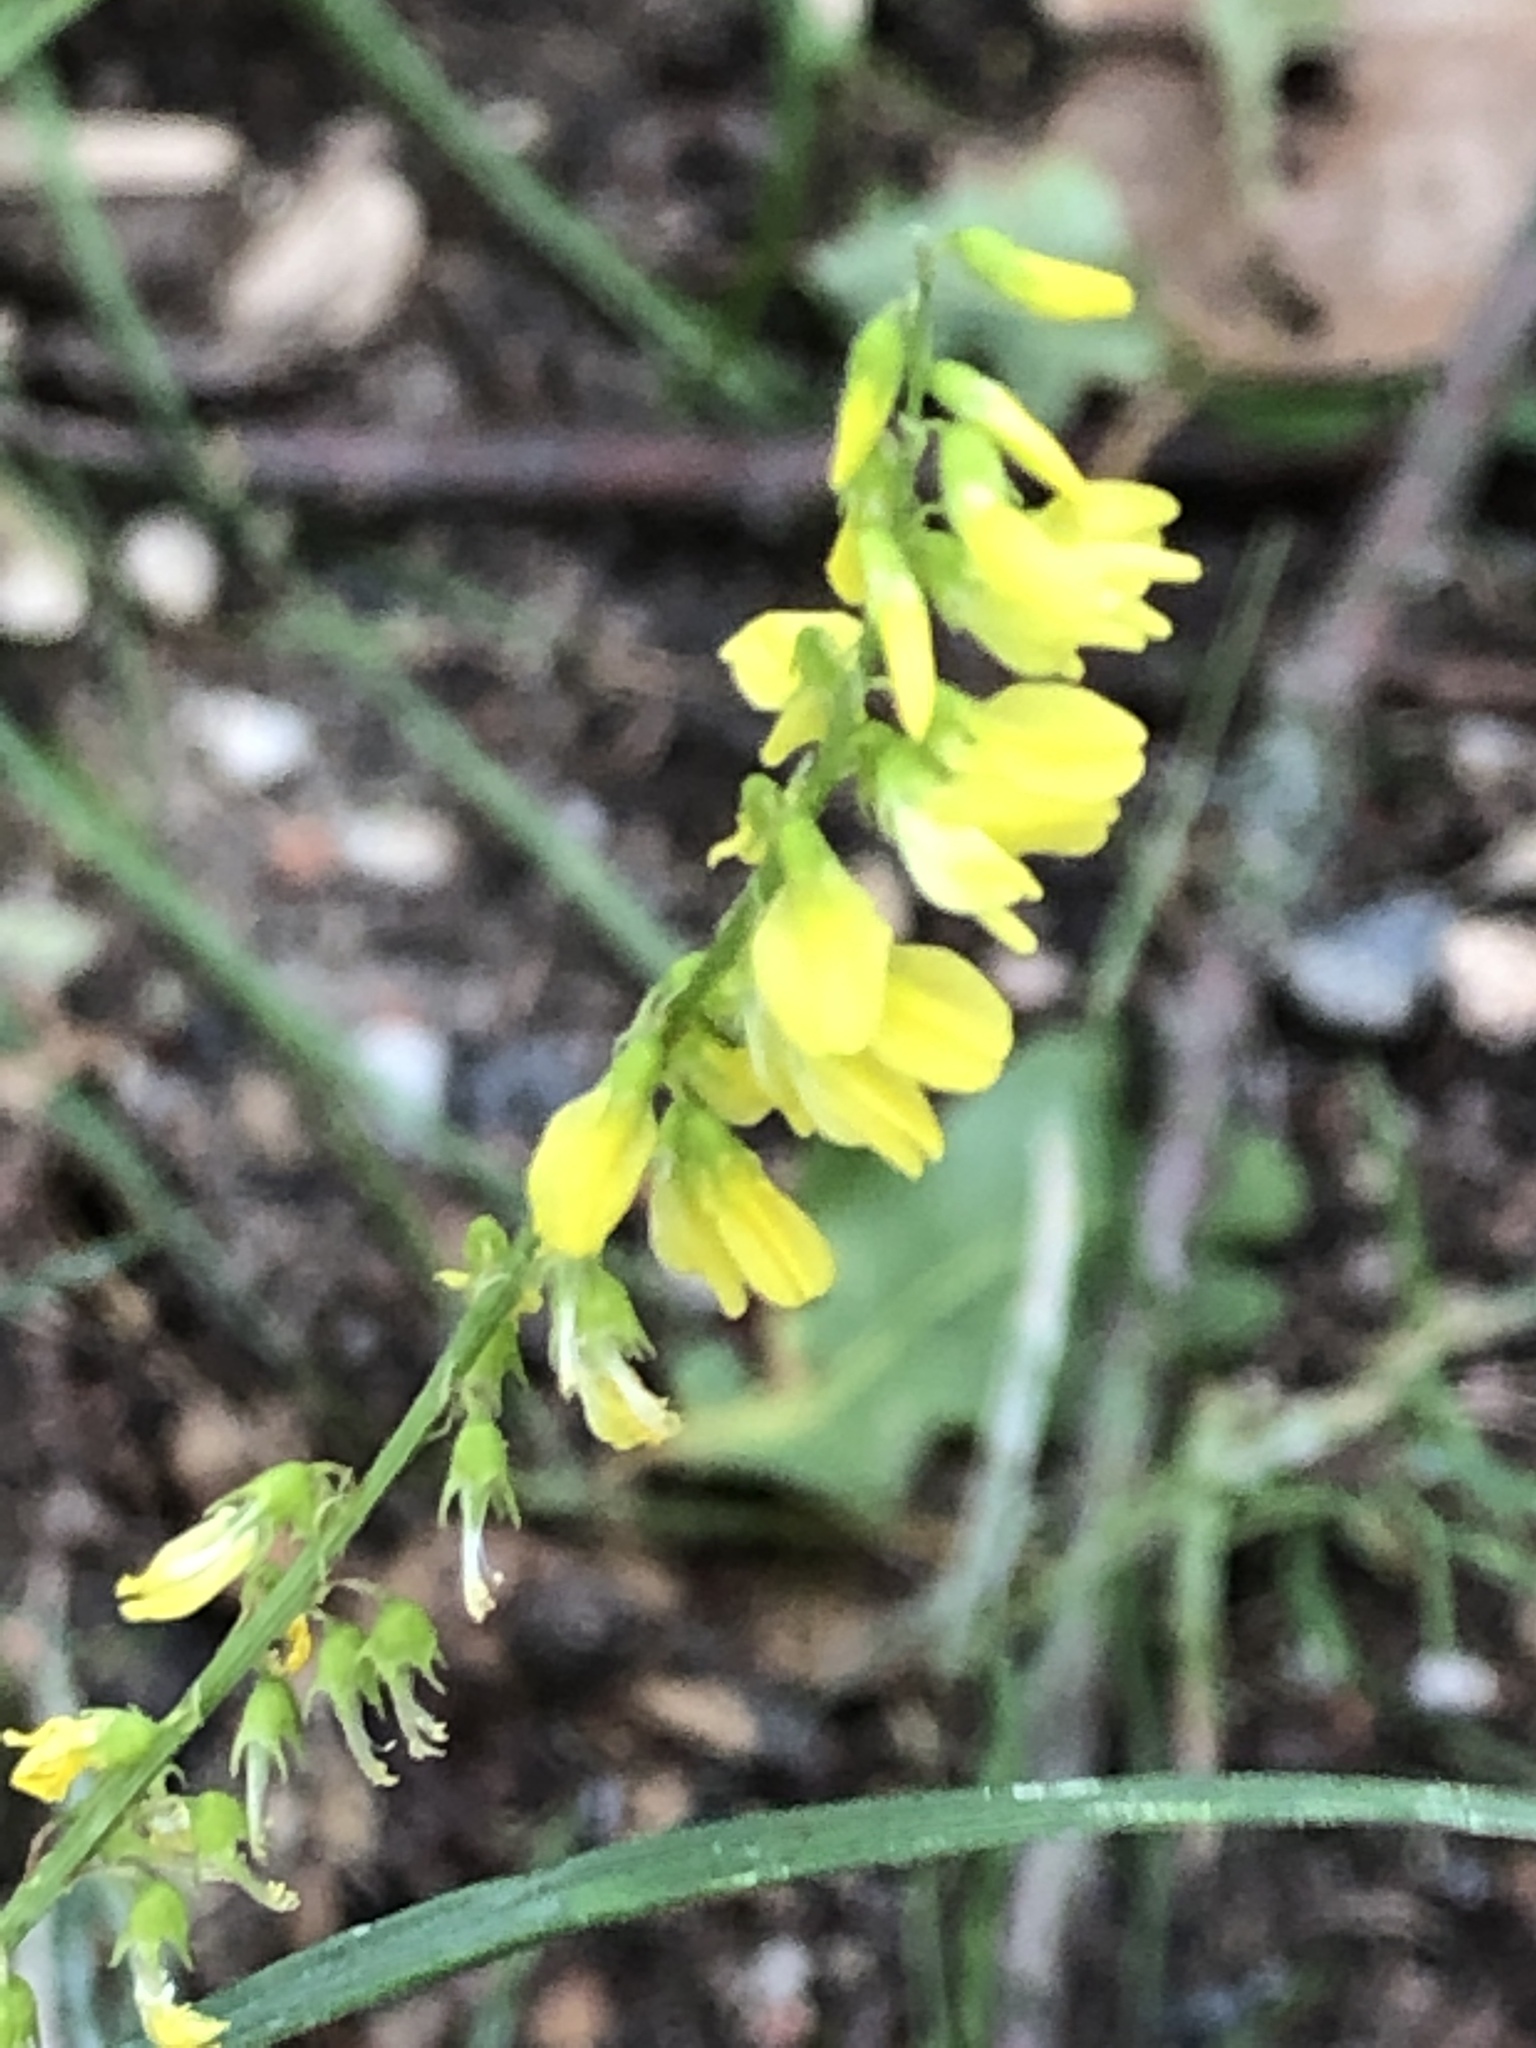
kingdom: Plantae
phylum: Tracheophyta
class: Magnoliopsida
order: Fabales
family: Fabaceae
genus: Melilotus
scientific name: Melilotus officinalis
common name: Sweetclover
